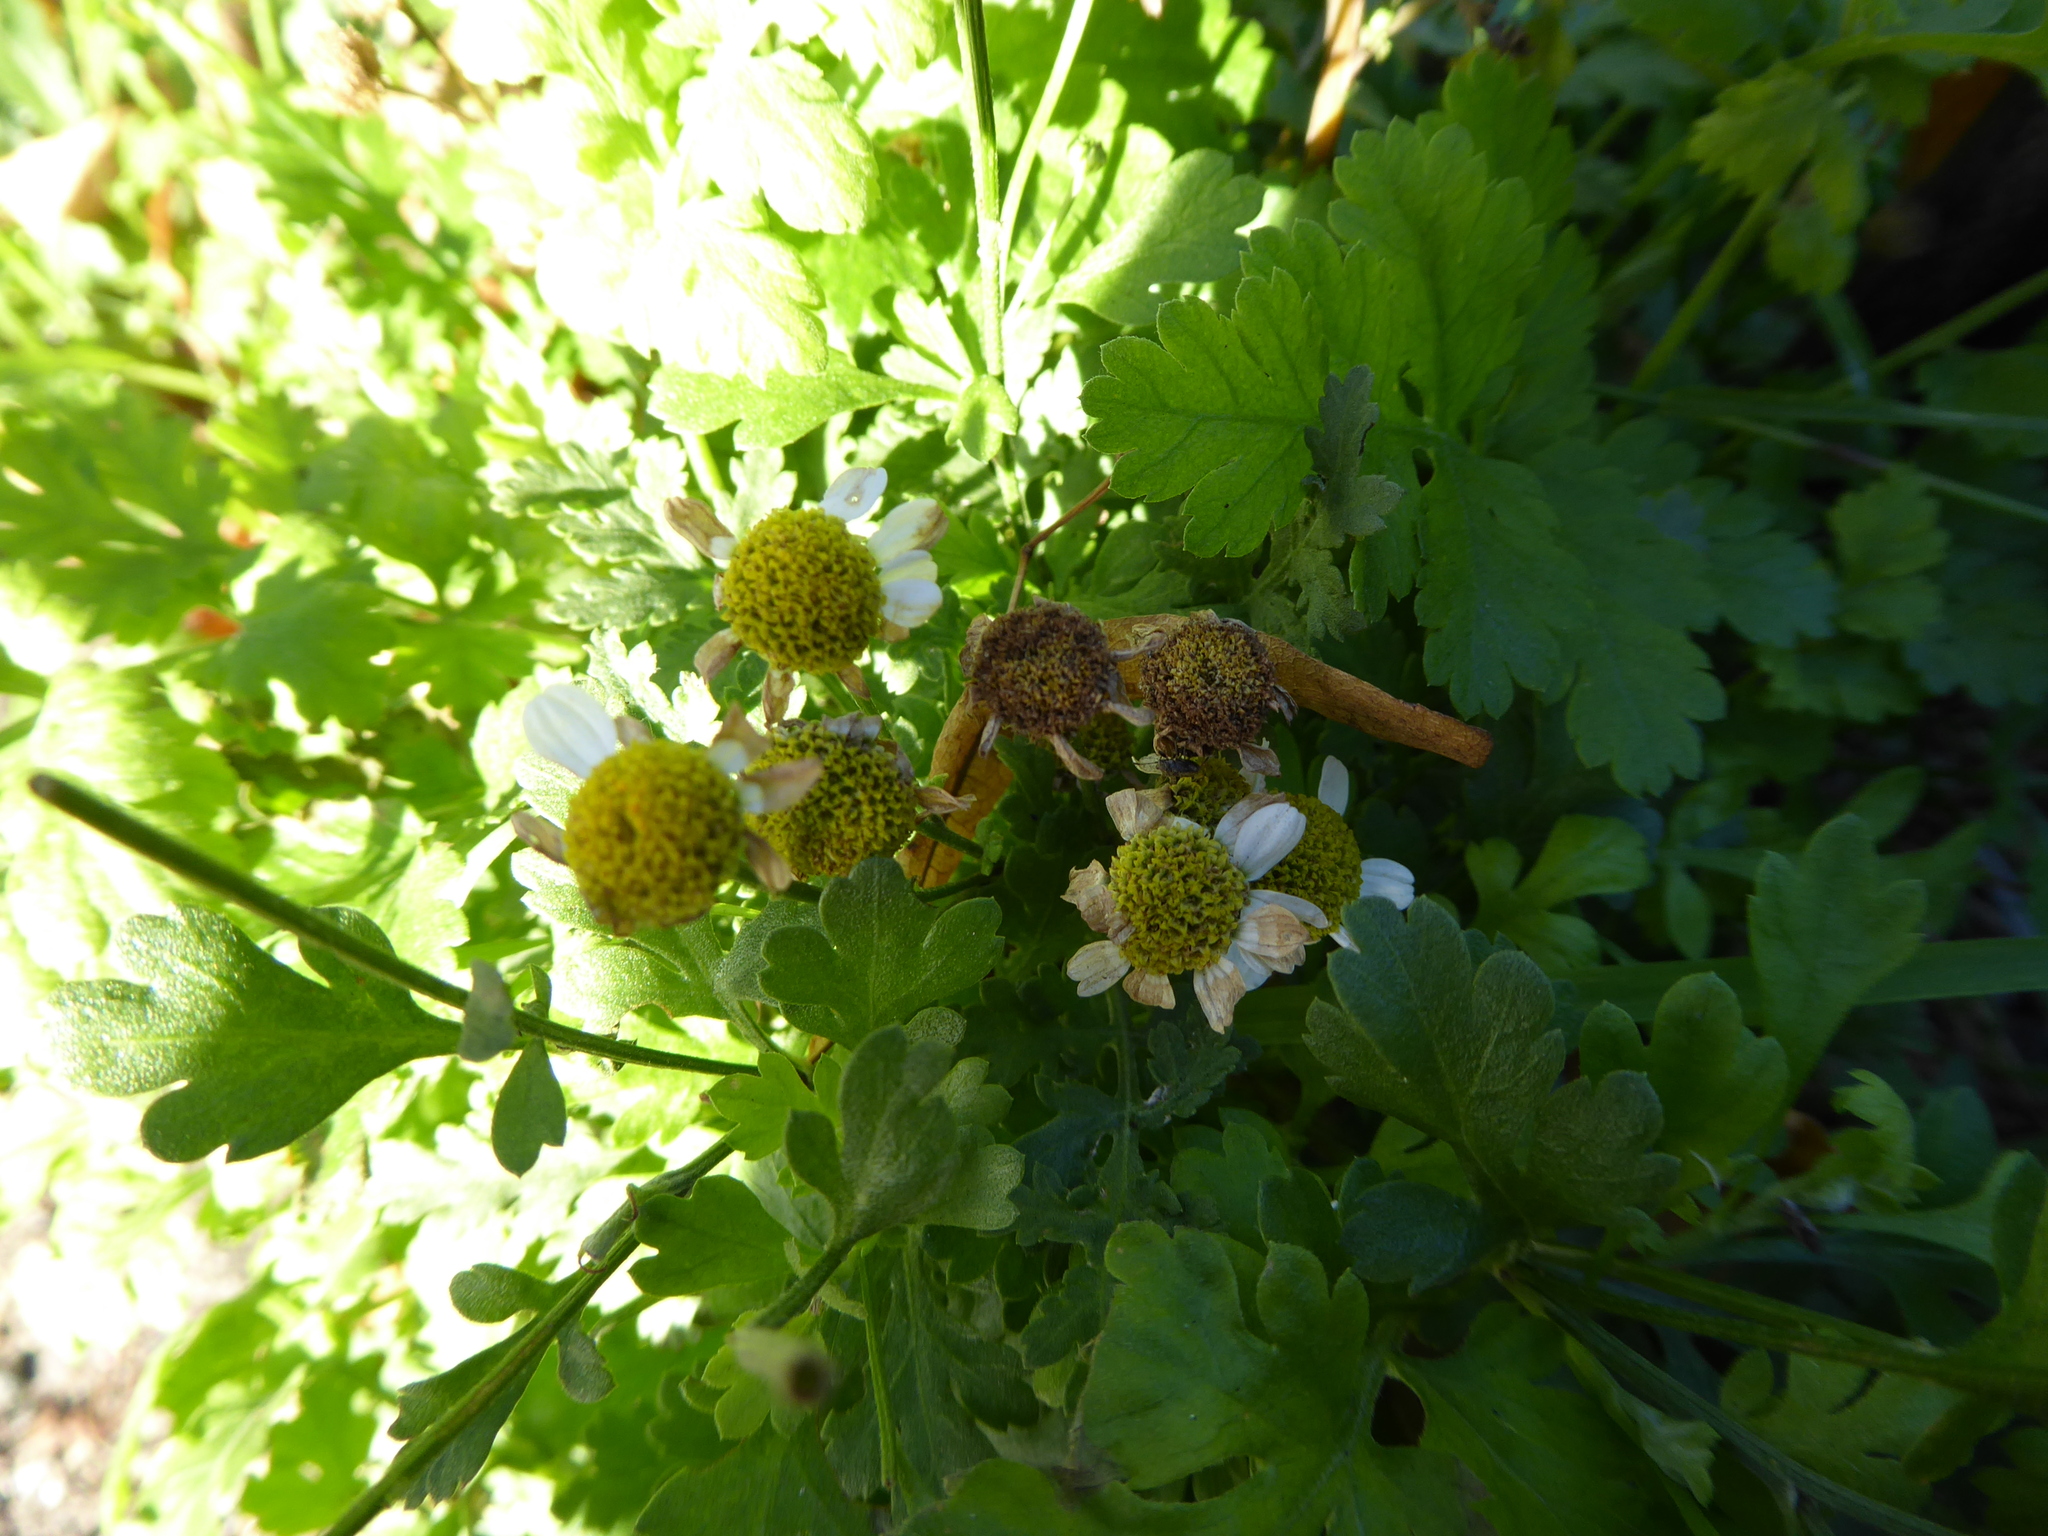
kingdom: Plantae
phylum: Tracheophyta
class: Magnoliopsida
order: Asterales
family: Asteraceae
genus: Tanacetum
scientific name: Tanacetum parthenium
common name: Feverfew
